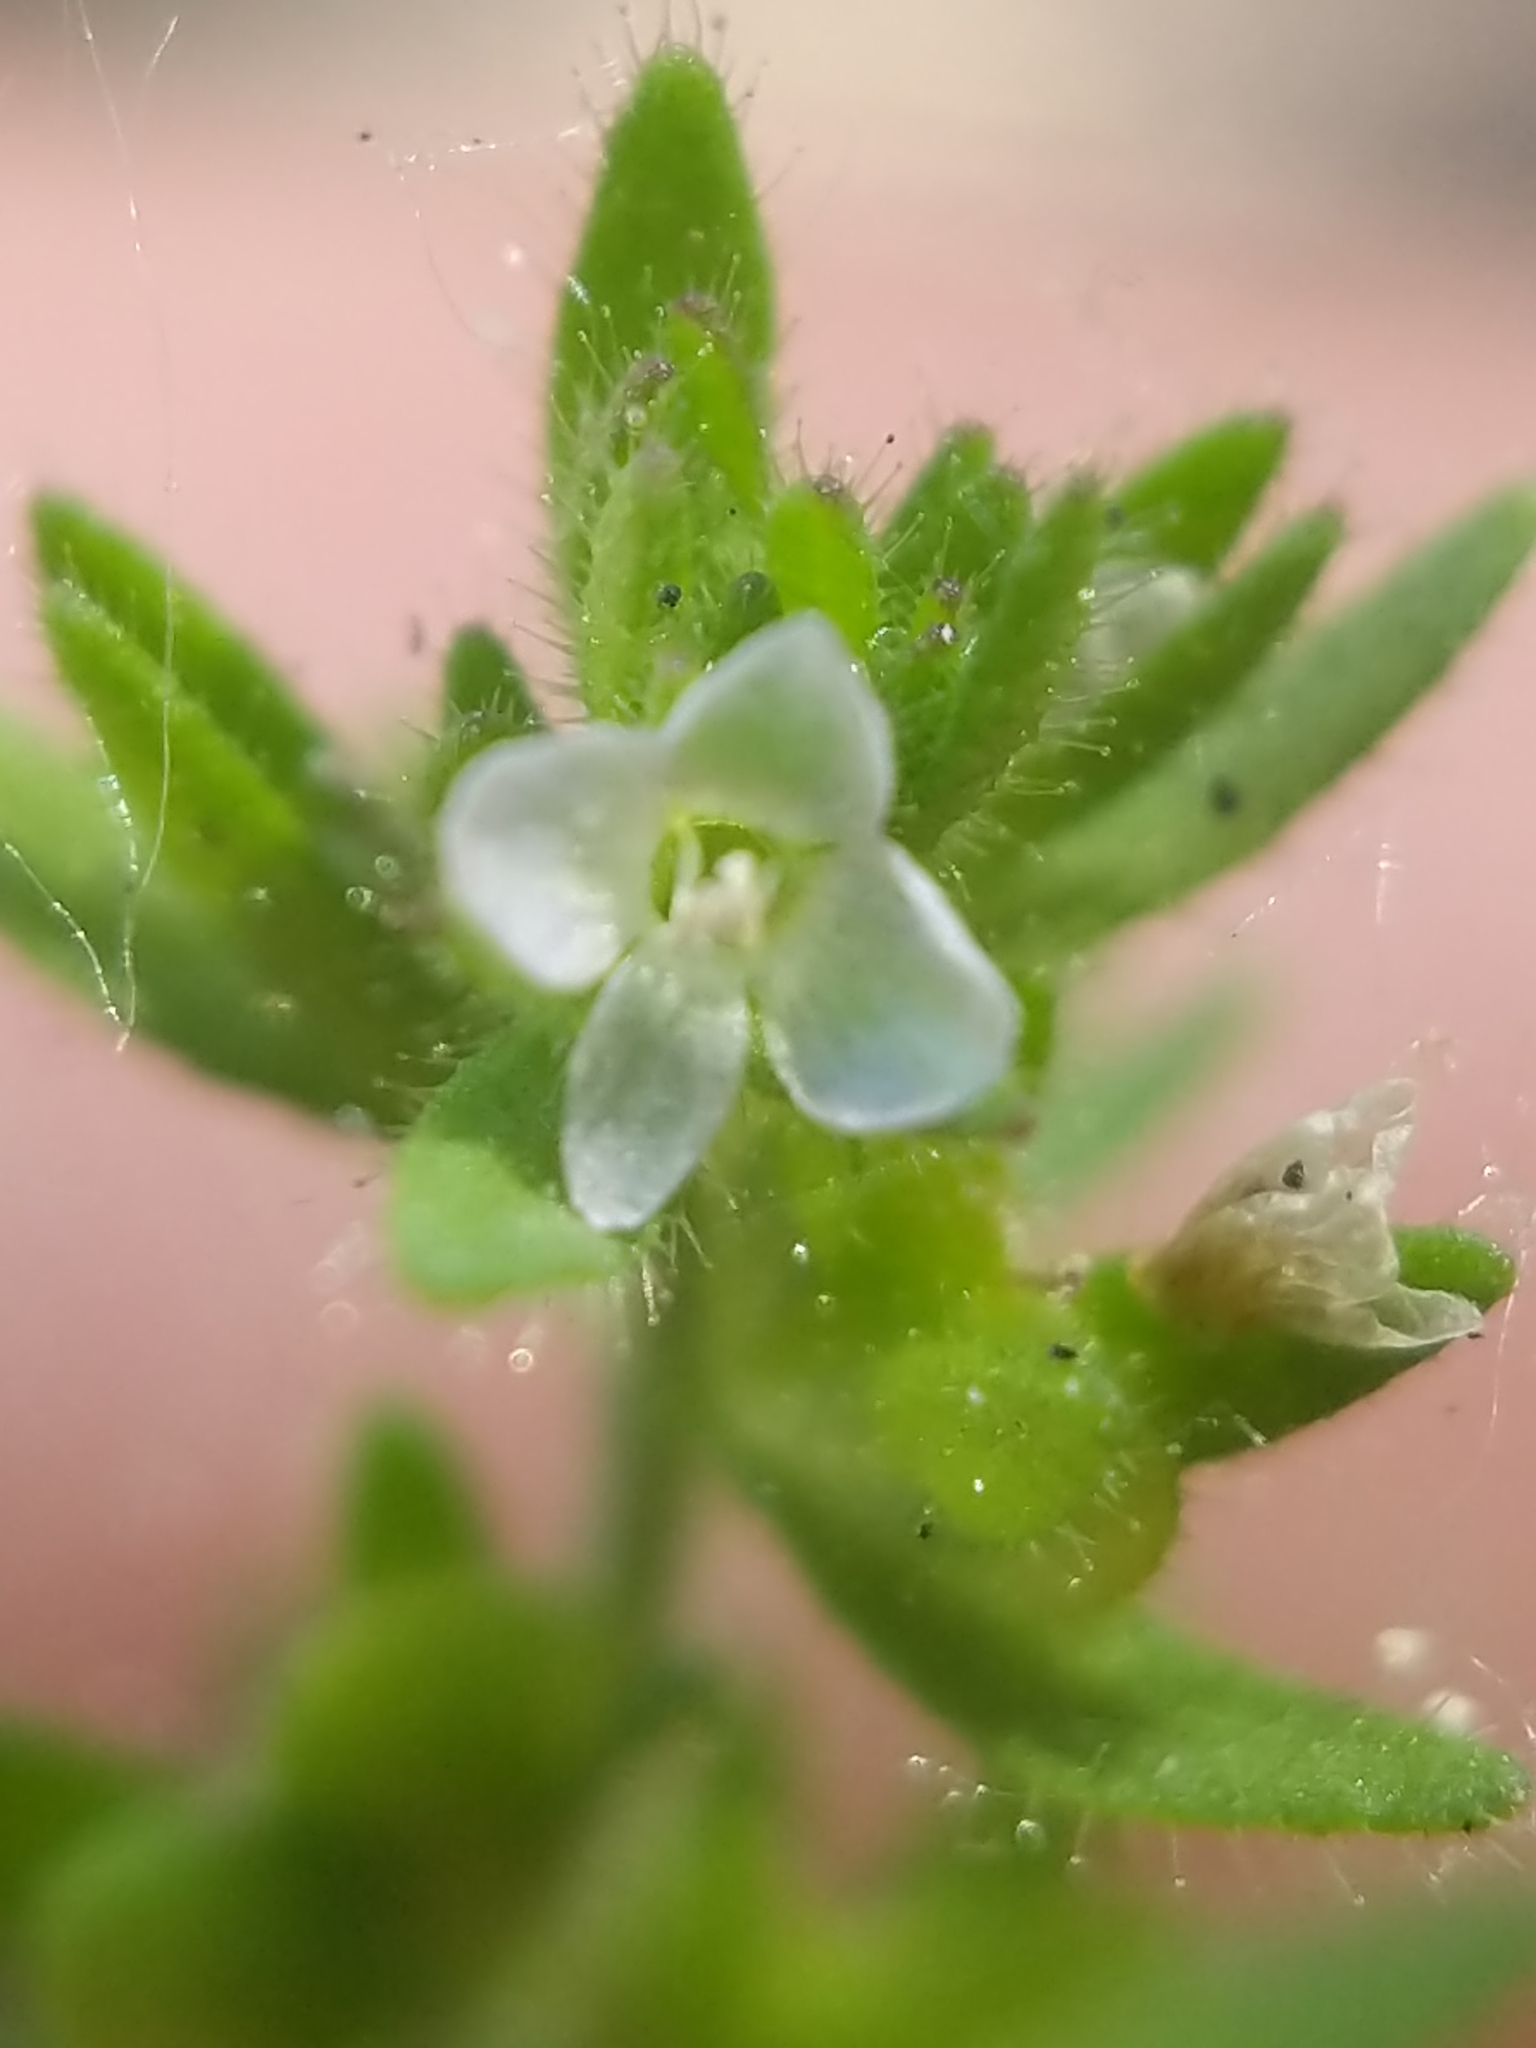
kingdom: Plantae
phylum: Tracheophyta
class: Magnoliopsida
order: Lamiales
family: Plantaginaceae
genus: Veronica
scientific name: Veronica arvensis
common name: Corn speedwell
